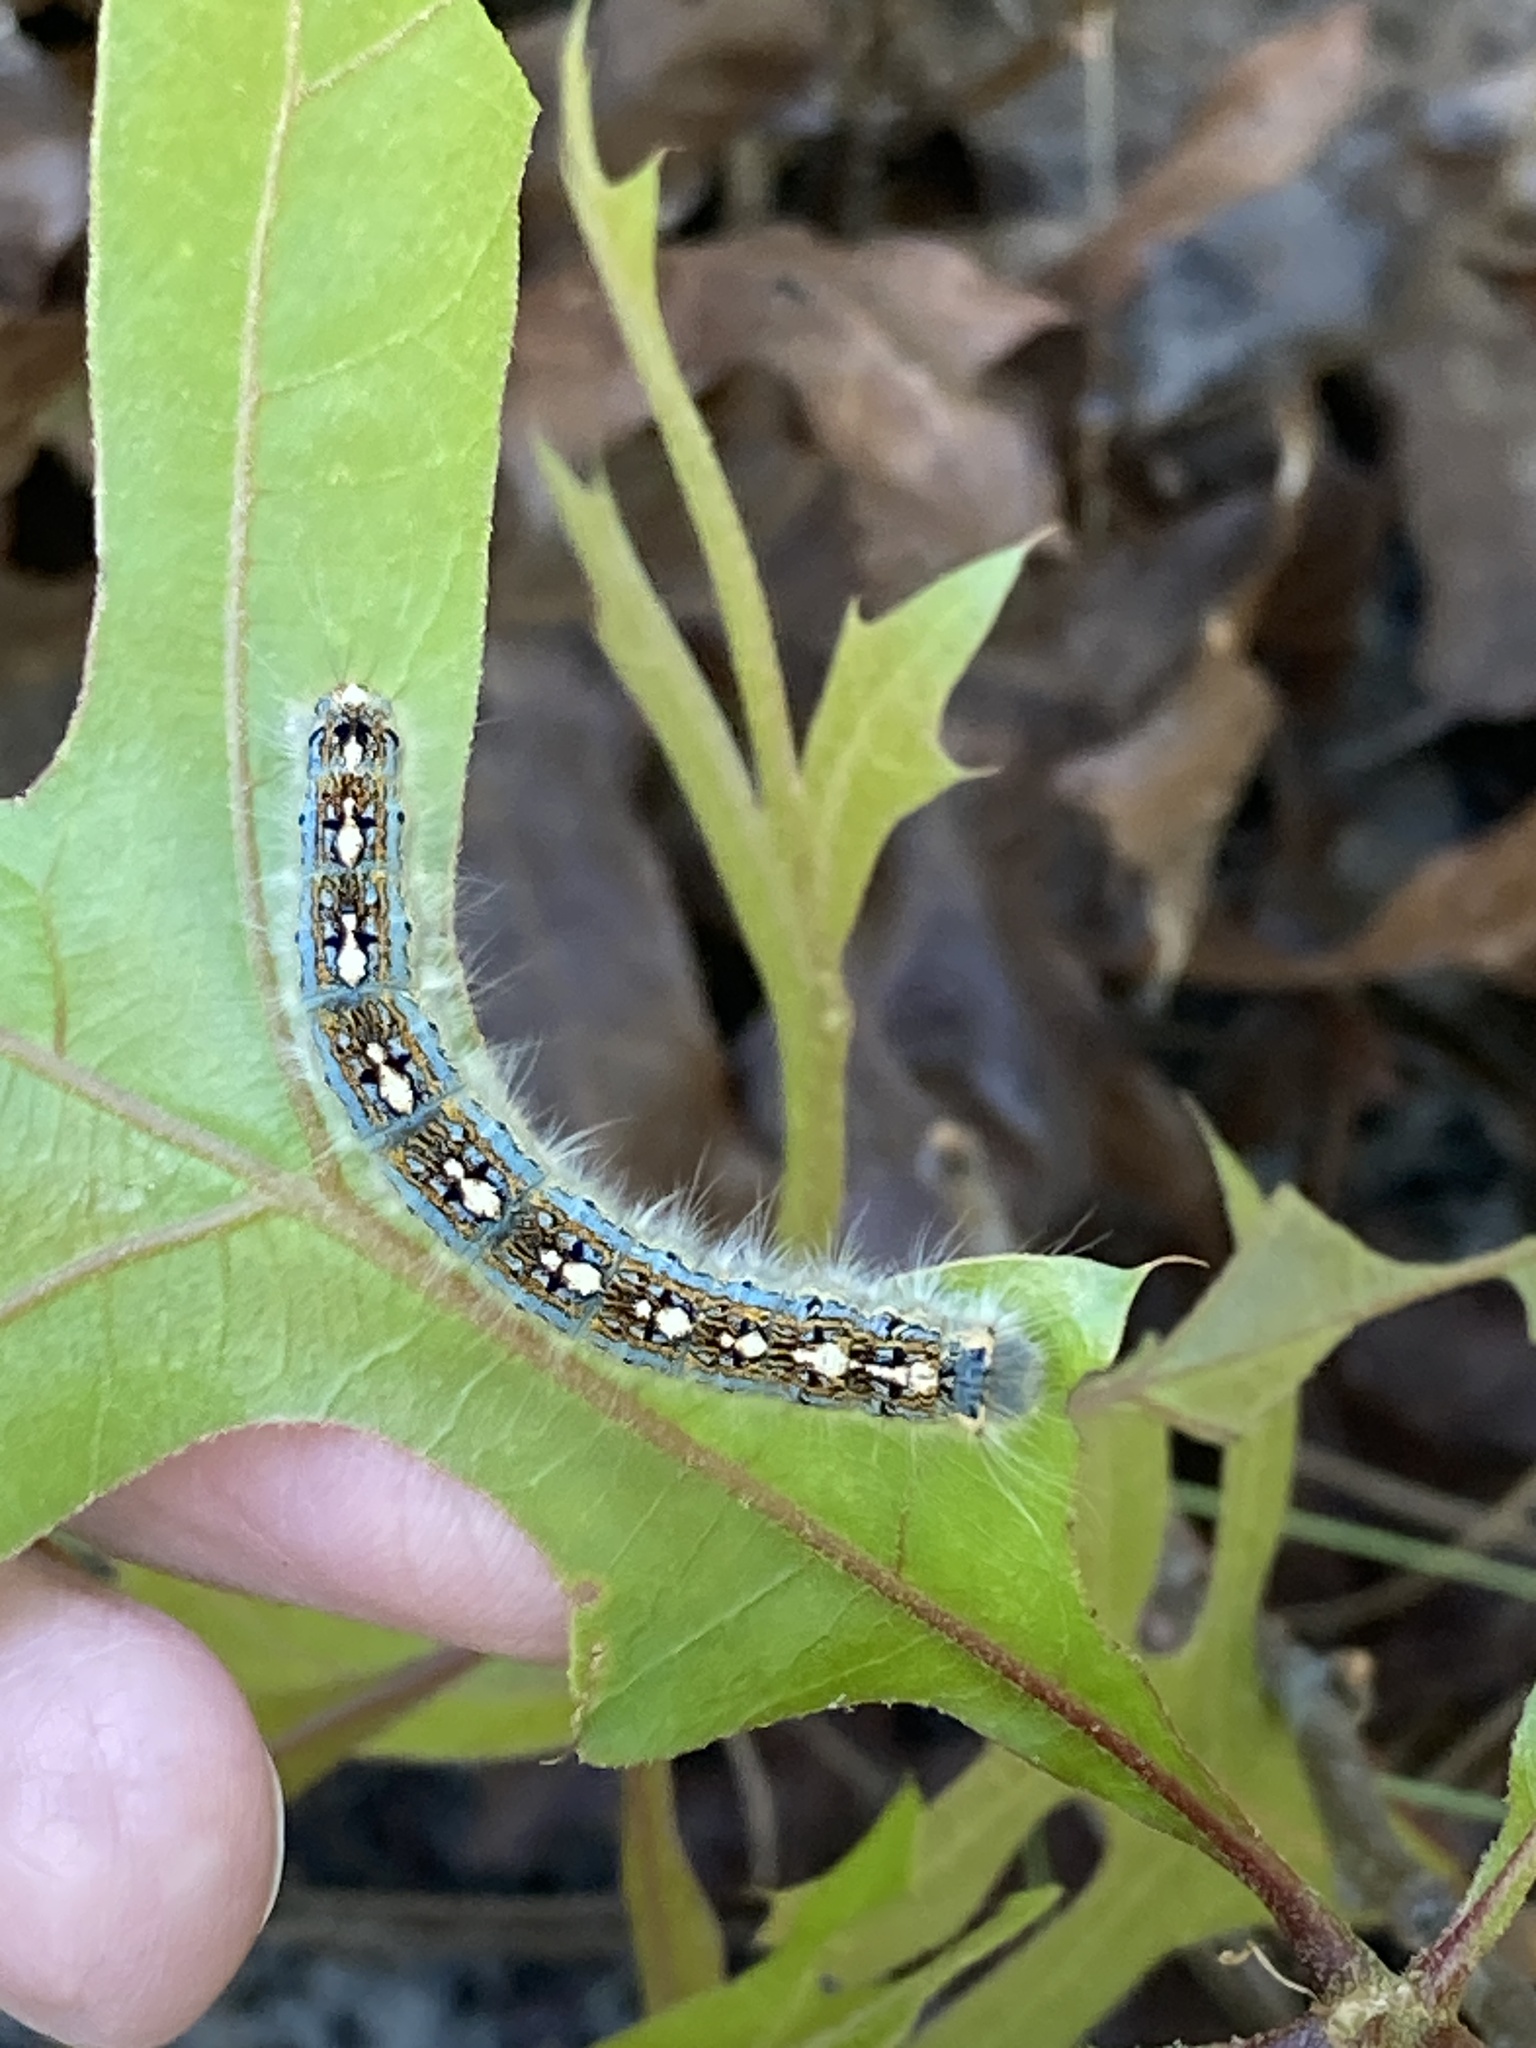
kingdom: Animalia
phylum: Arthropoda
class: Insecta
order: Lepidoptera
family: Lasiocampidae
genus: Malacosoma
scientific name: Malacosoma disstria
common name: Forest tent caterpillar
